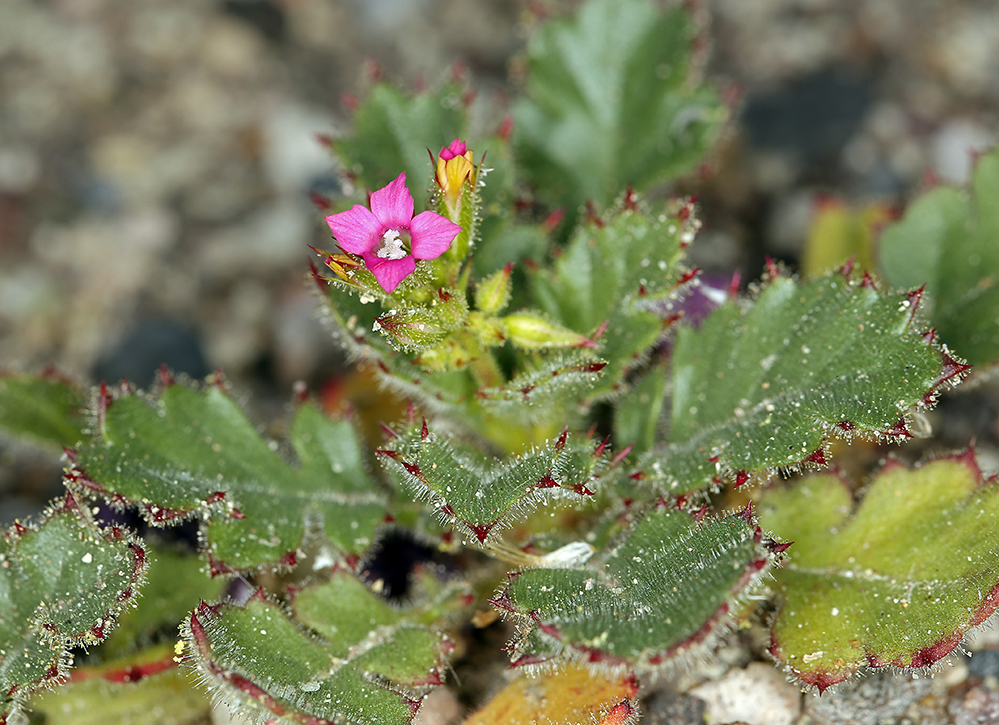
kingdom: Plantae
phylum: Tracheophyta
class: Magnoliopsida
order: Ericales
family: Polemoniaceae
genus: Aliciella
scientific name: Aliciella latifolia
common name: Broad-leaf gilia
